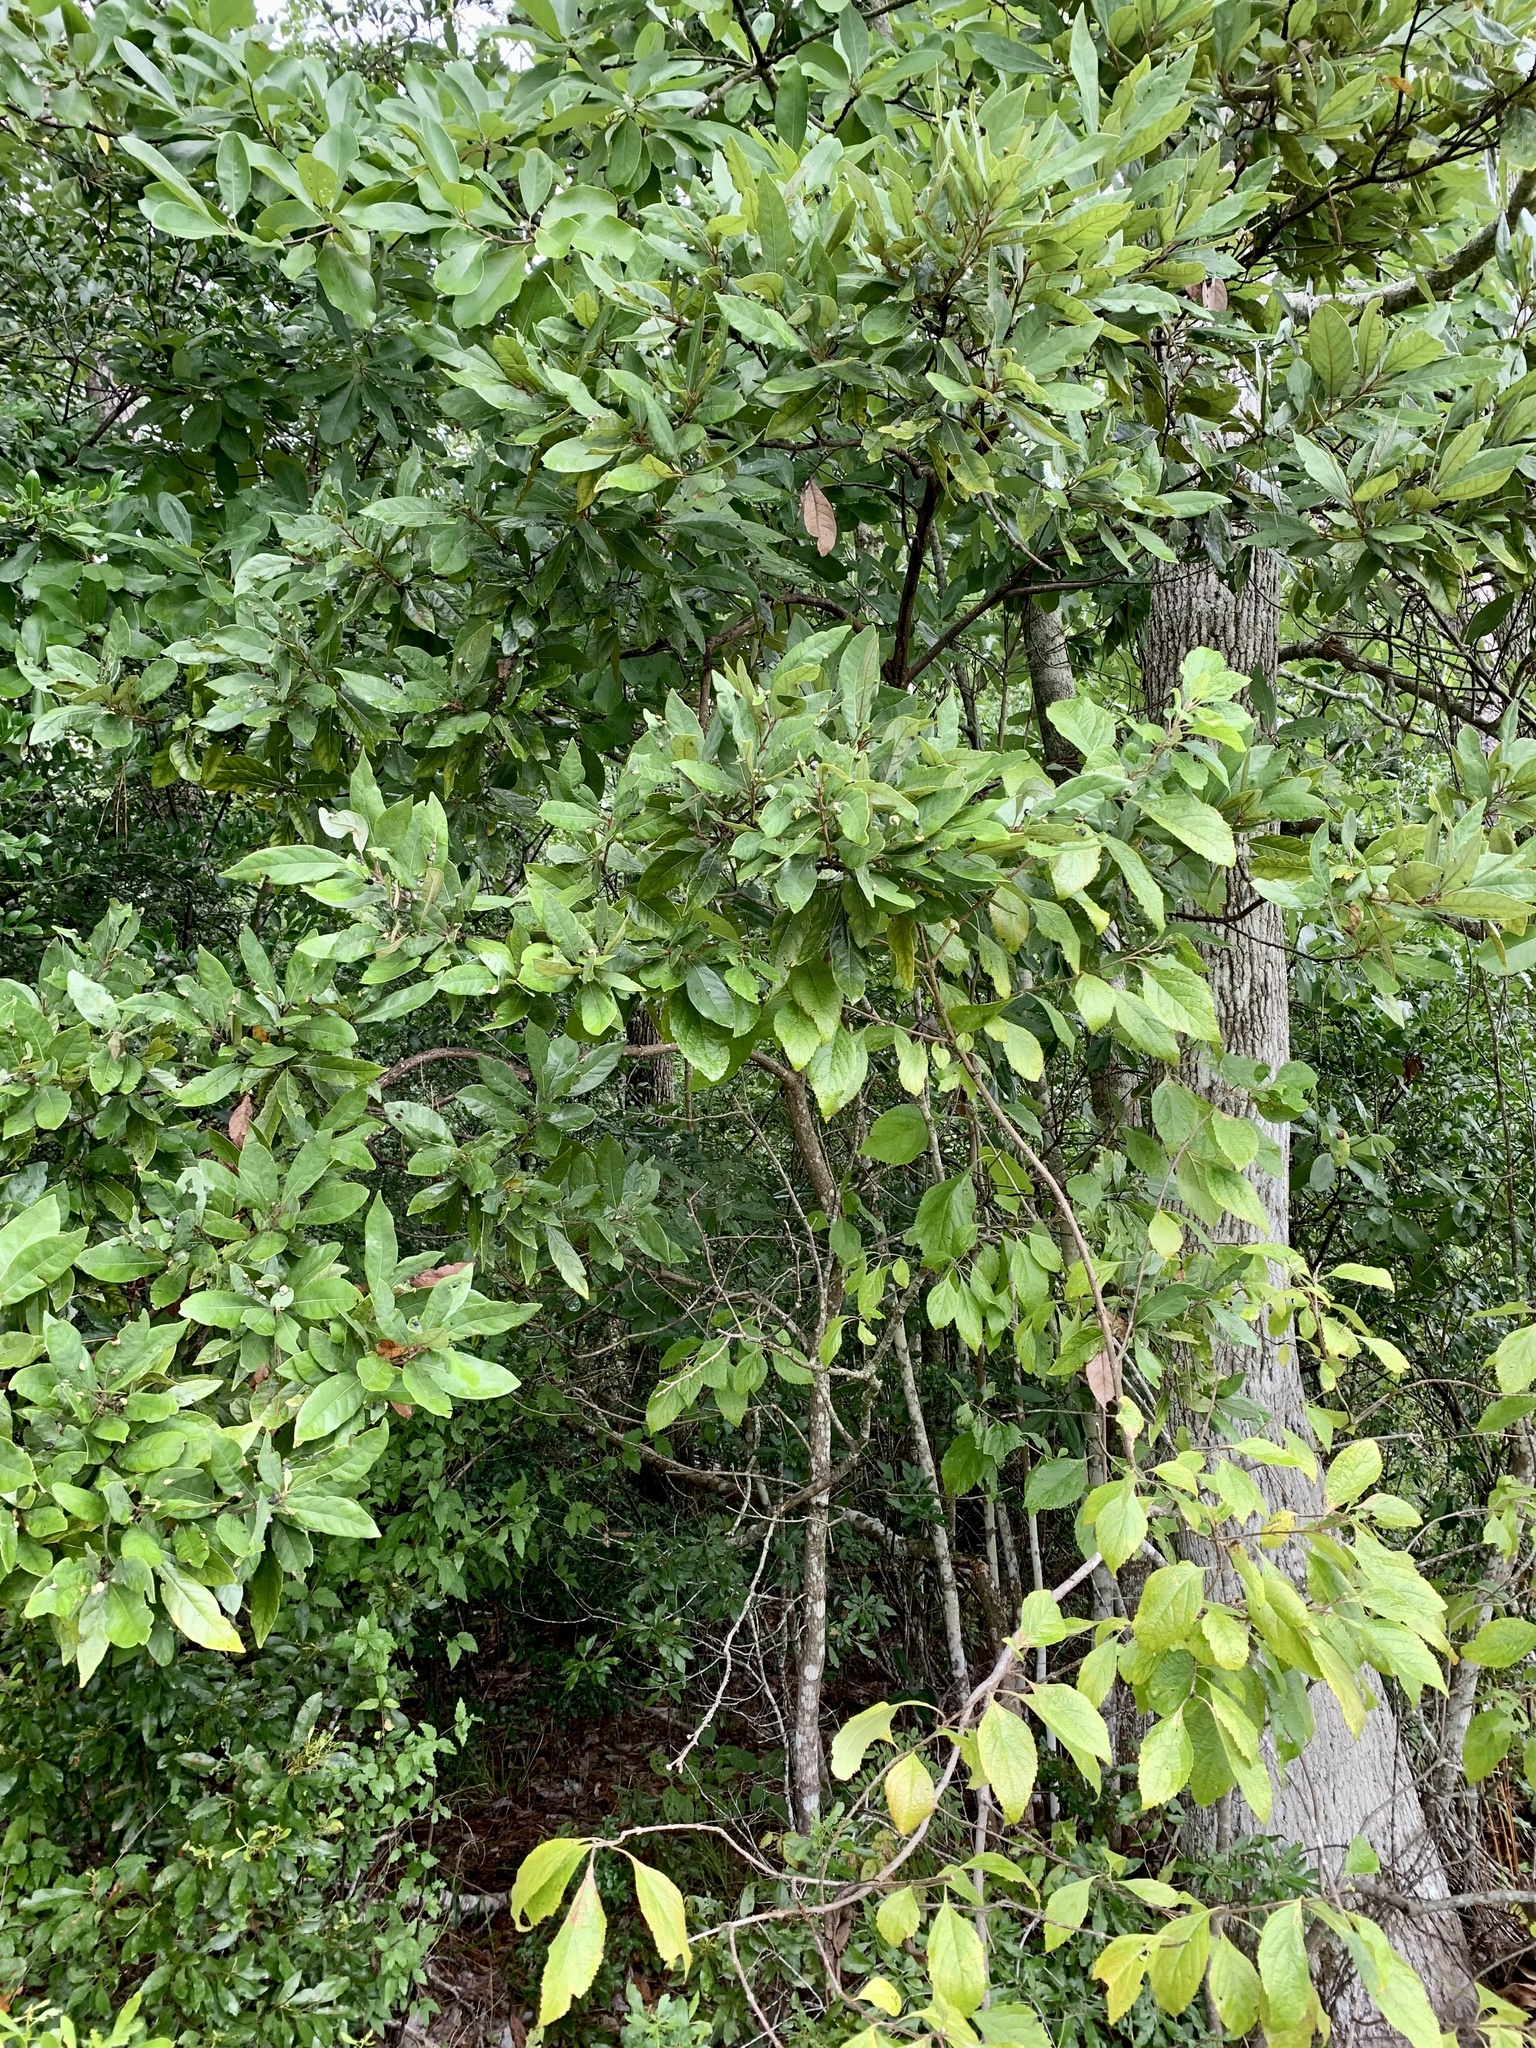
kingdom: Plantae
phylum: Tracheophyta
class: Magnoliopsida
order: Laurales
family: Lauraceae
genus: Persea
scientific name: Persea palustris
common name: Swampbay
